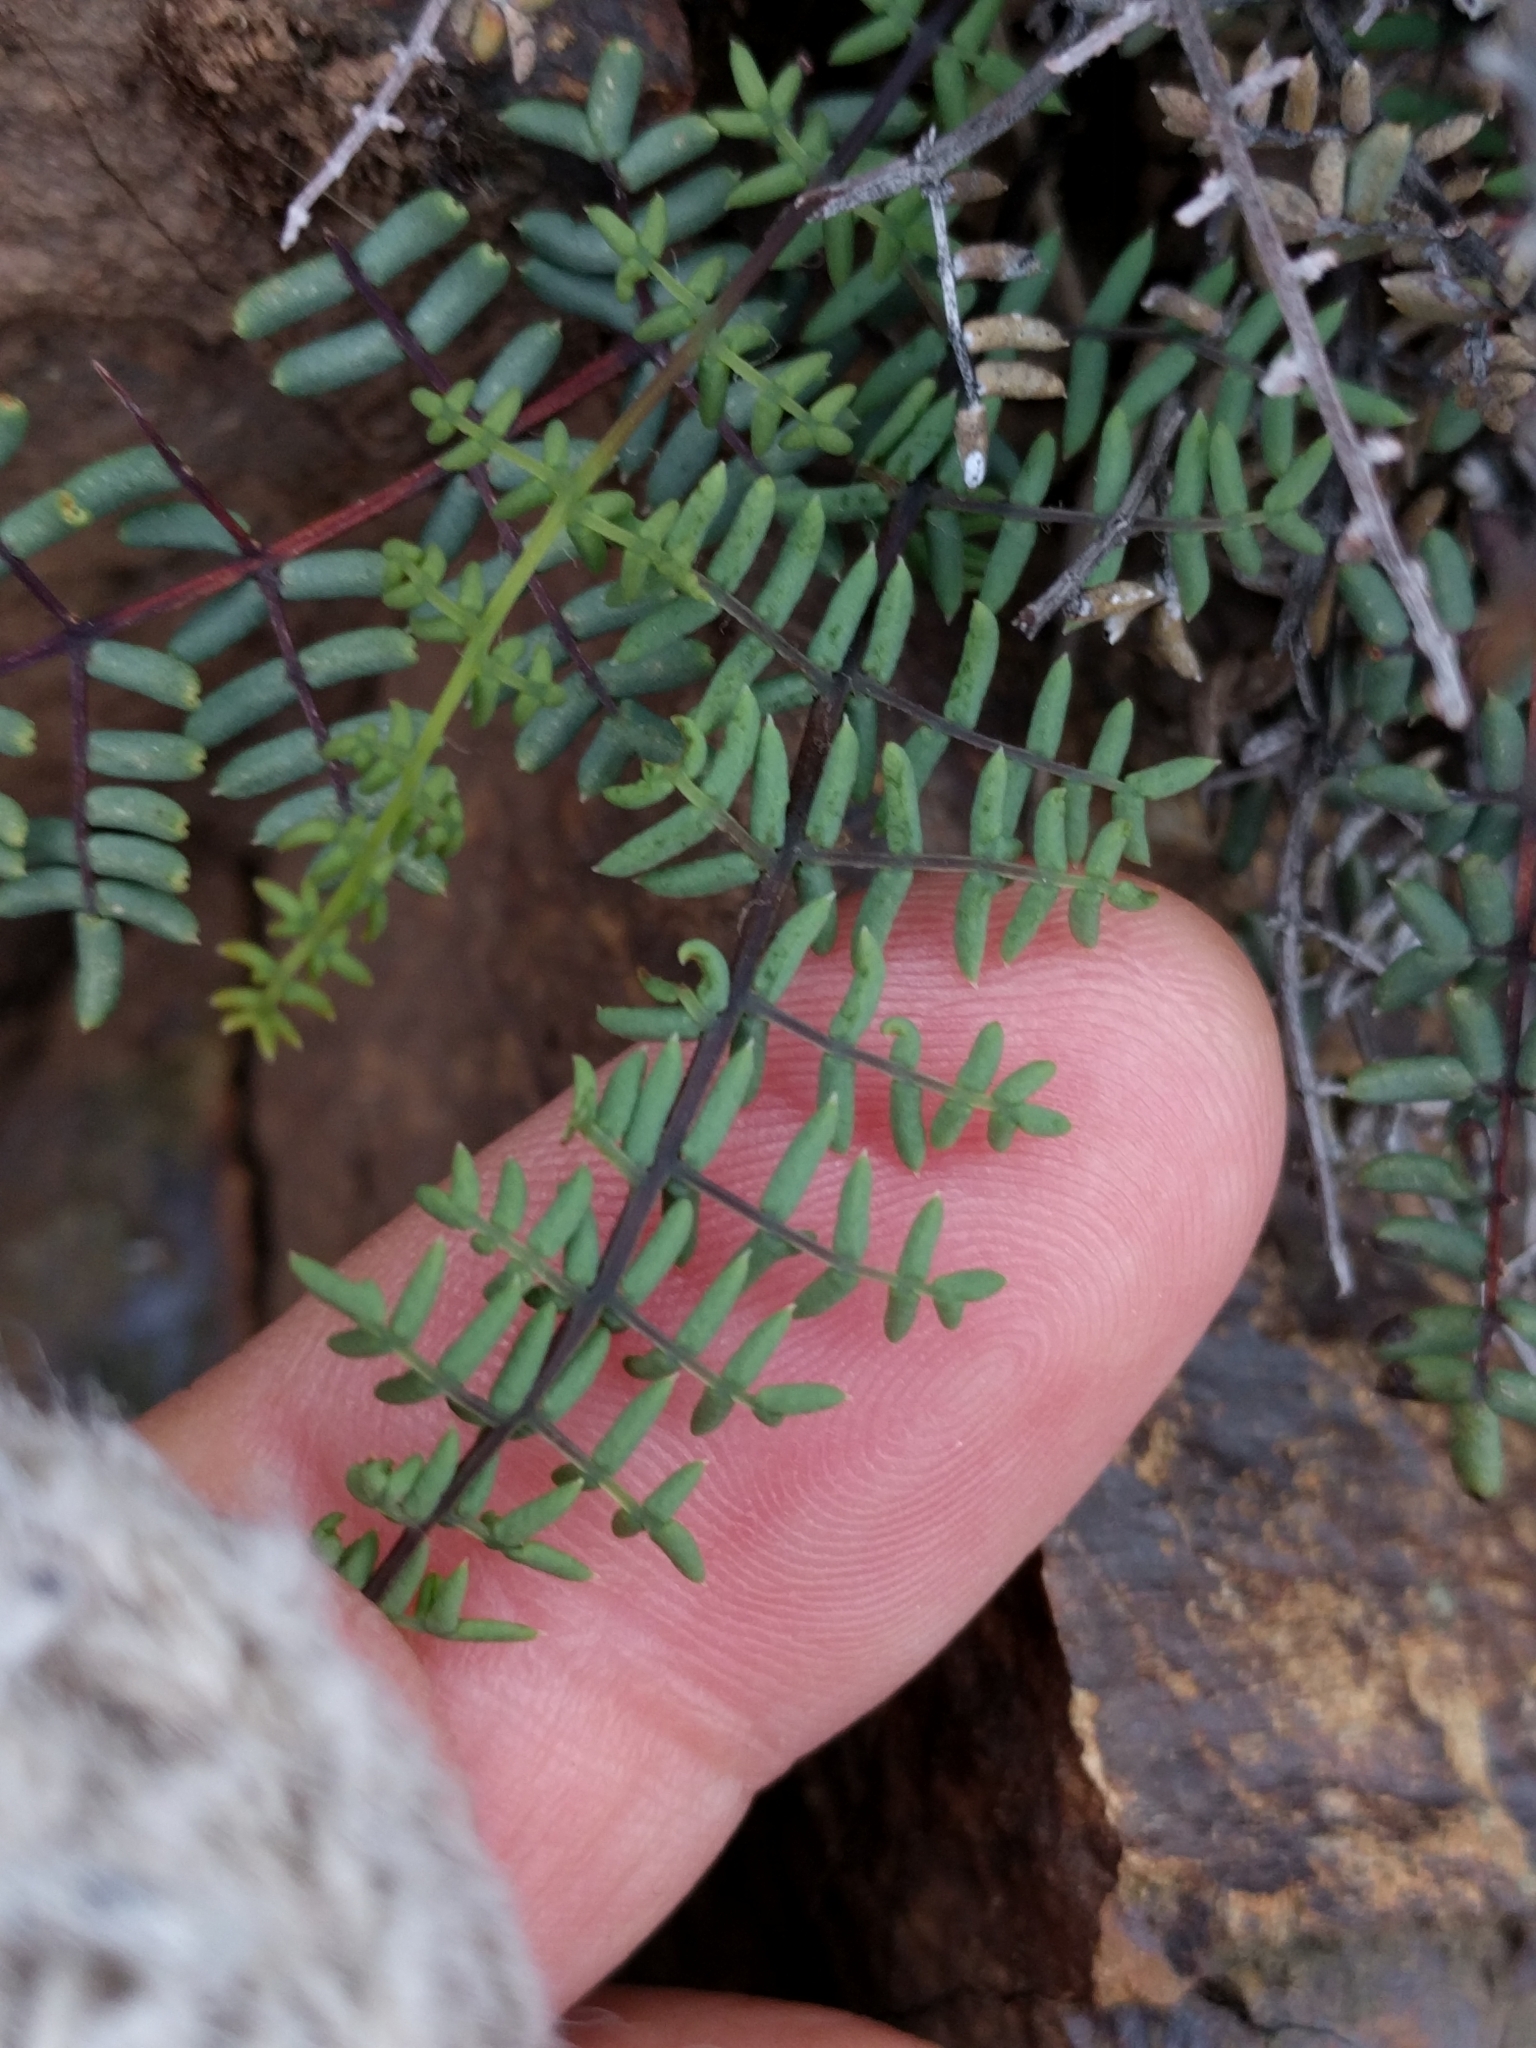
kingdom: Plantae
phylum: Tracheophyta
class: Polypodiopsida
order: Polypodiales
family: Pteridaceae
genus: Pellaea
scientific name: Pellaea mucronata
